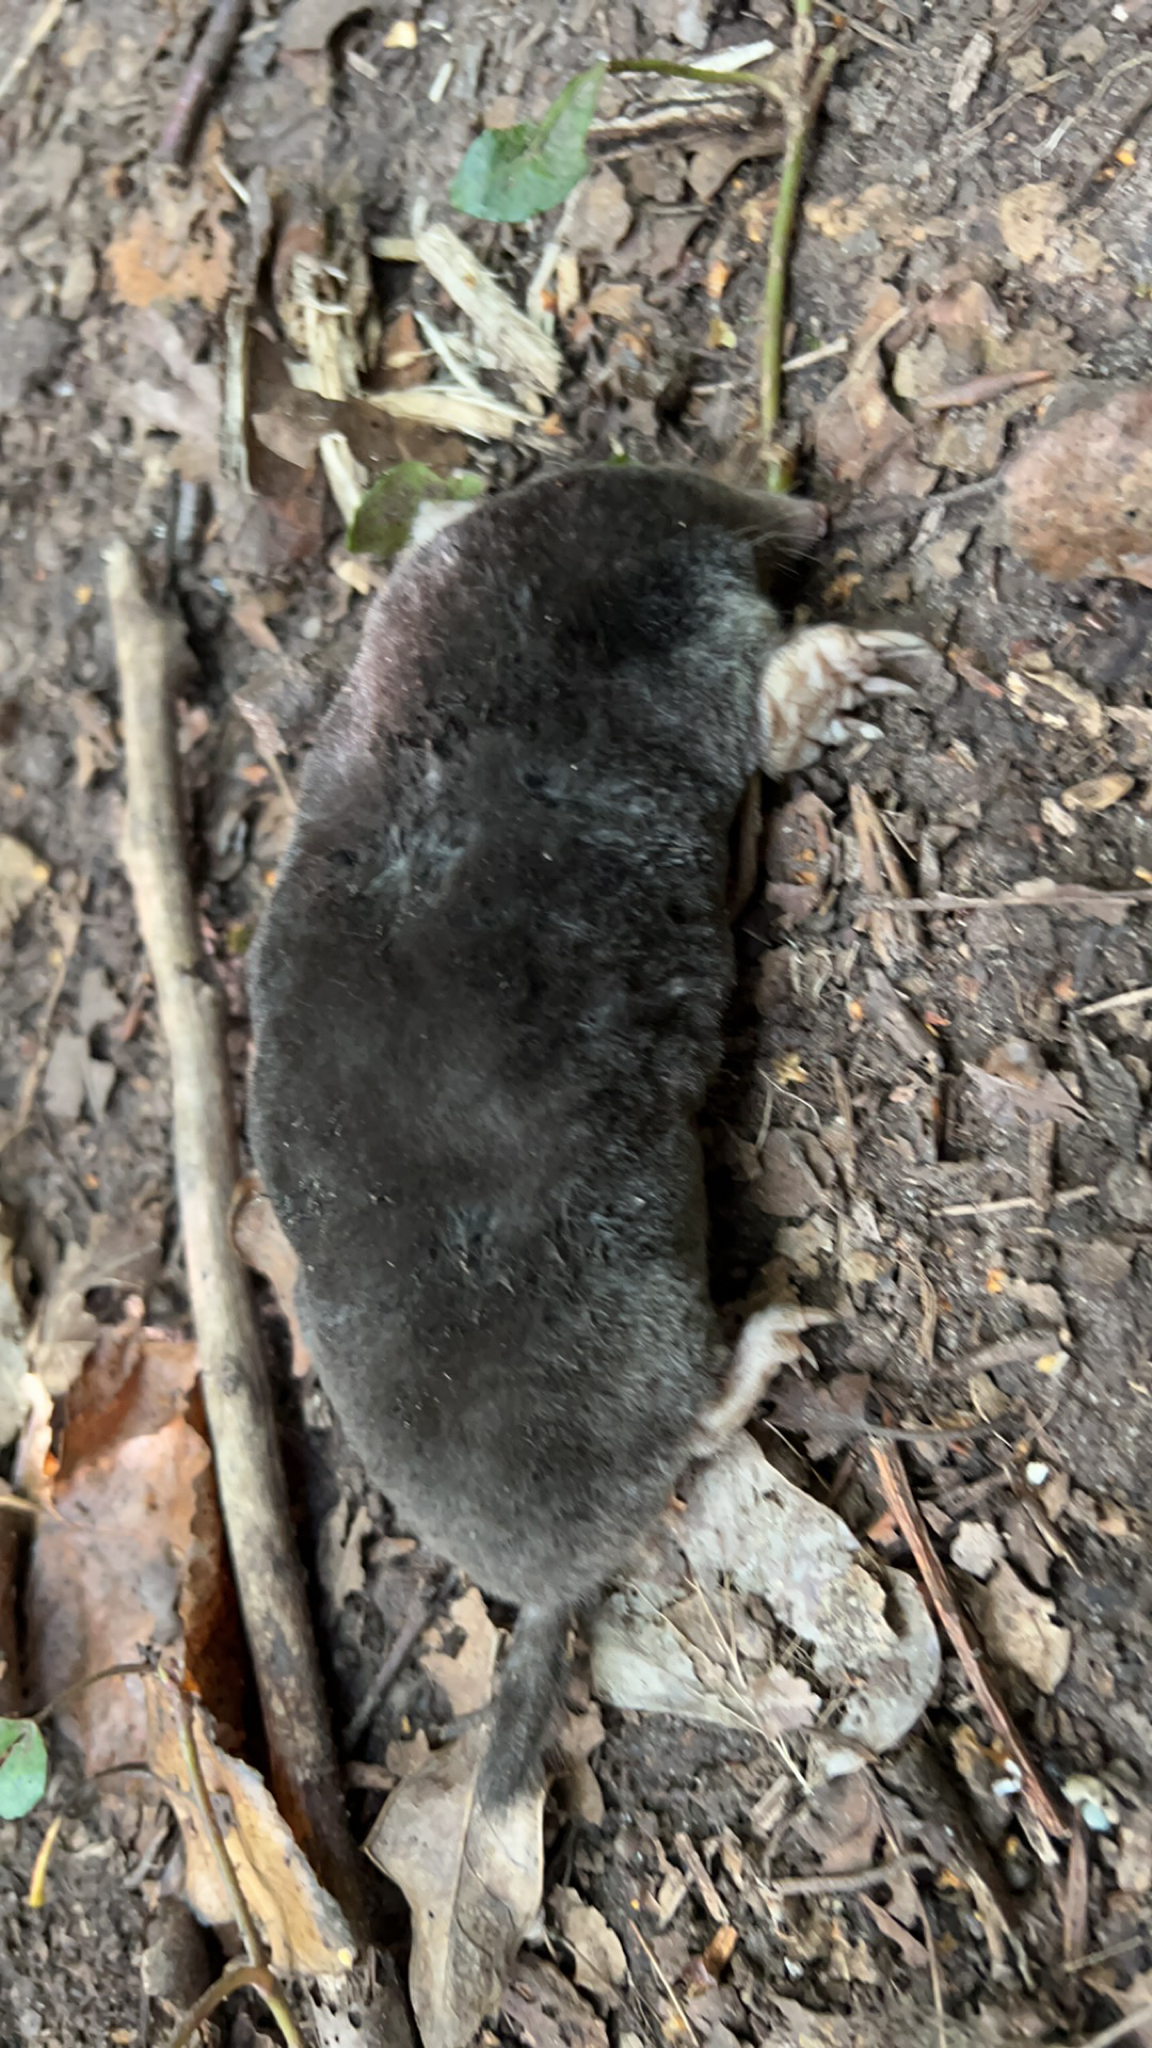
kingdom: Animalia
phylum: Chordata
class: Mammalia
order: Soricomorpha
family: Talpidae
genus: Talpa
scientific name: Talpa europaea
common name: European mole
